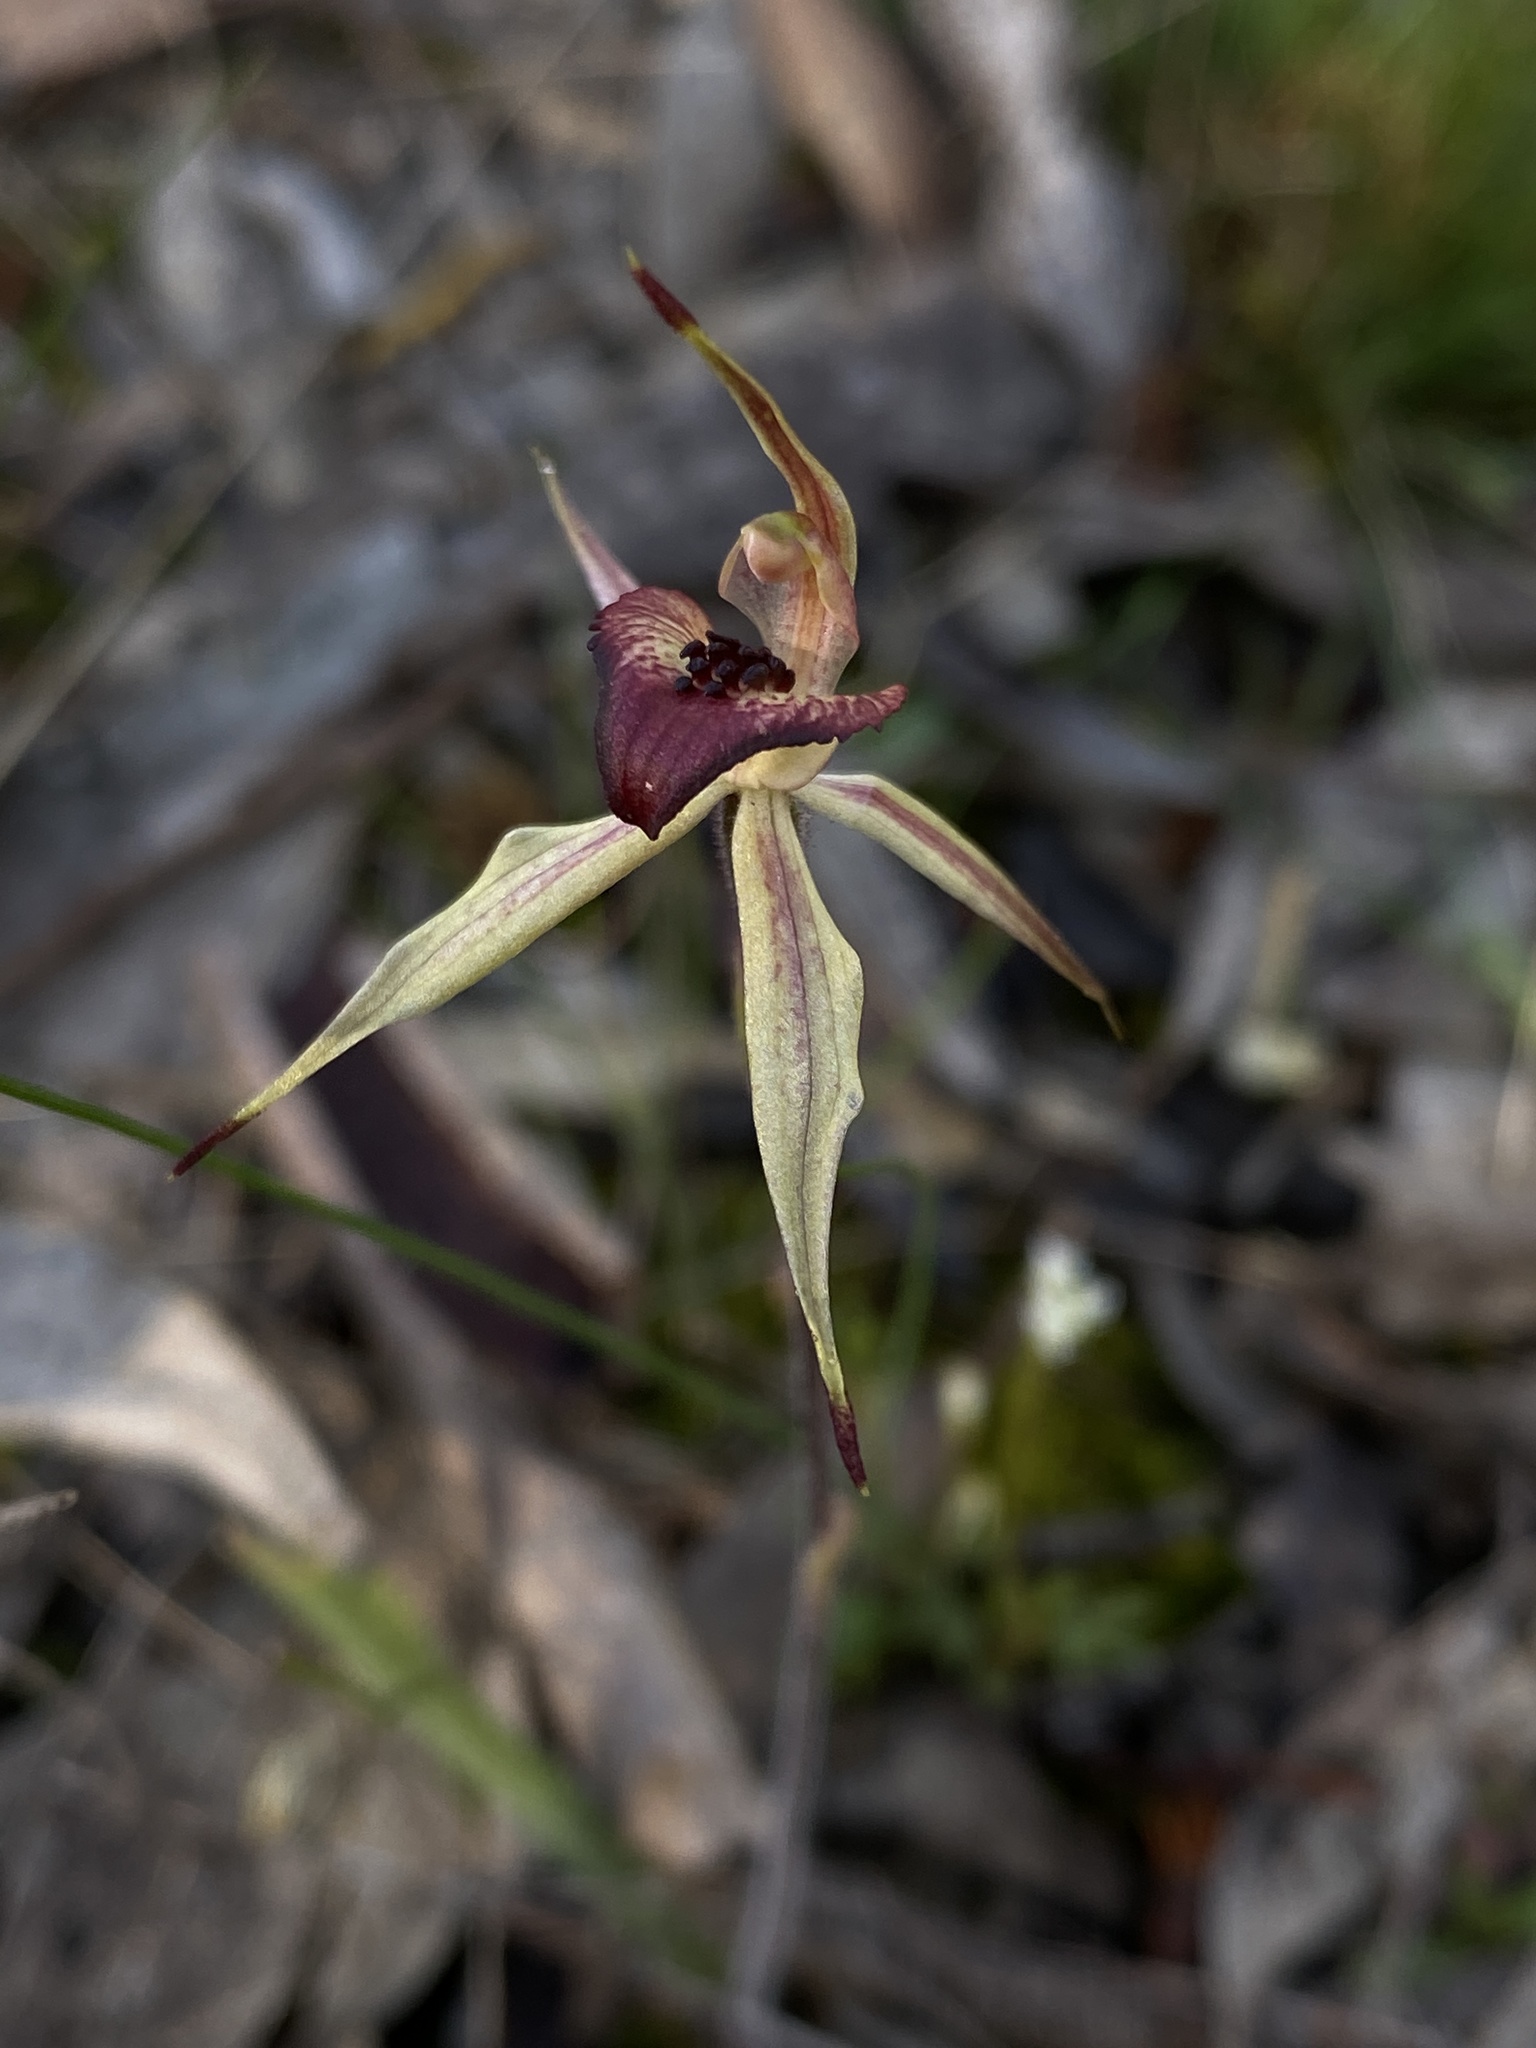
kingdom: Plantae
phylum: Tracheophyta
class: Liliopsida
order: Asparagales
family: Orchidaceae
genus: Caladenia
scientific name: Caladenia cardiochila
